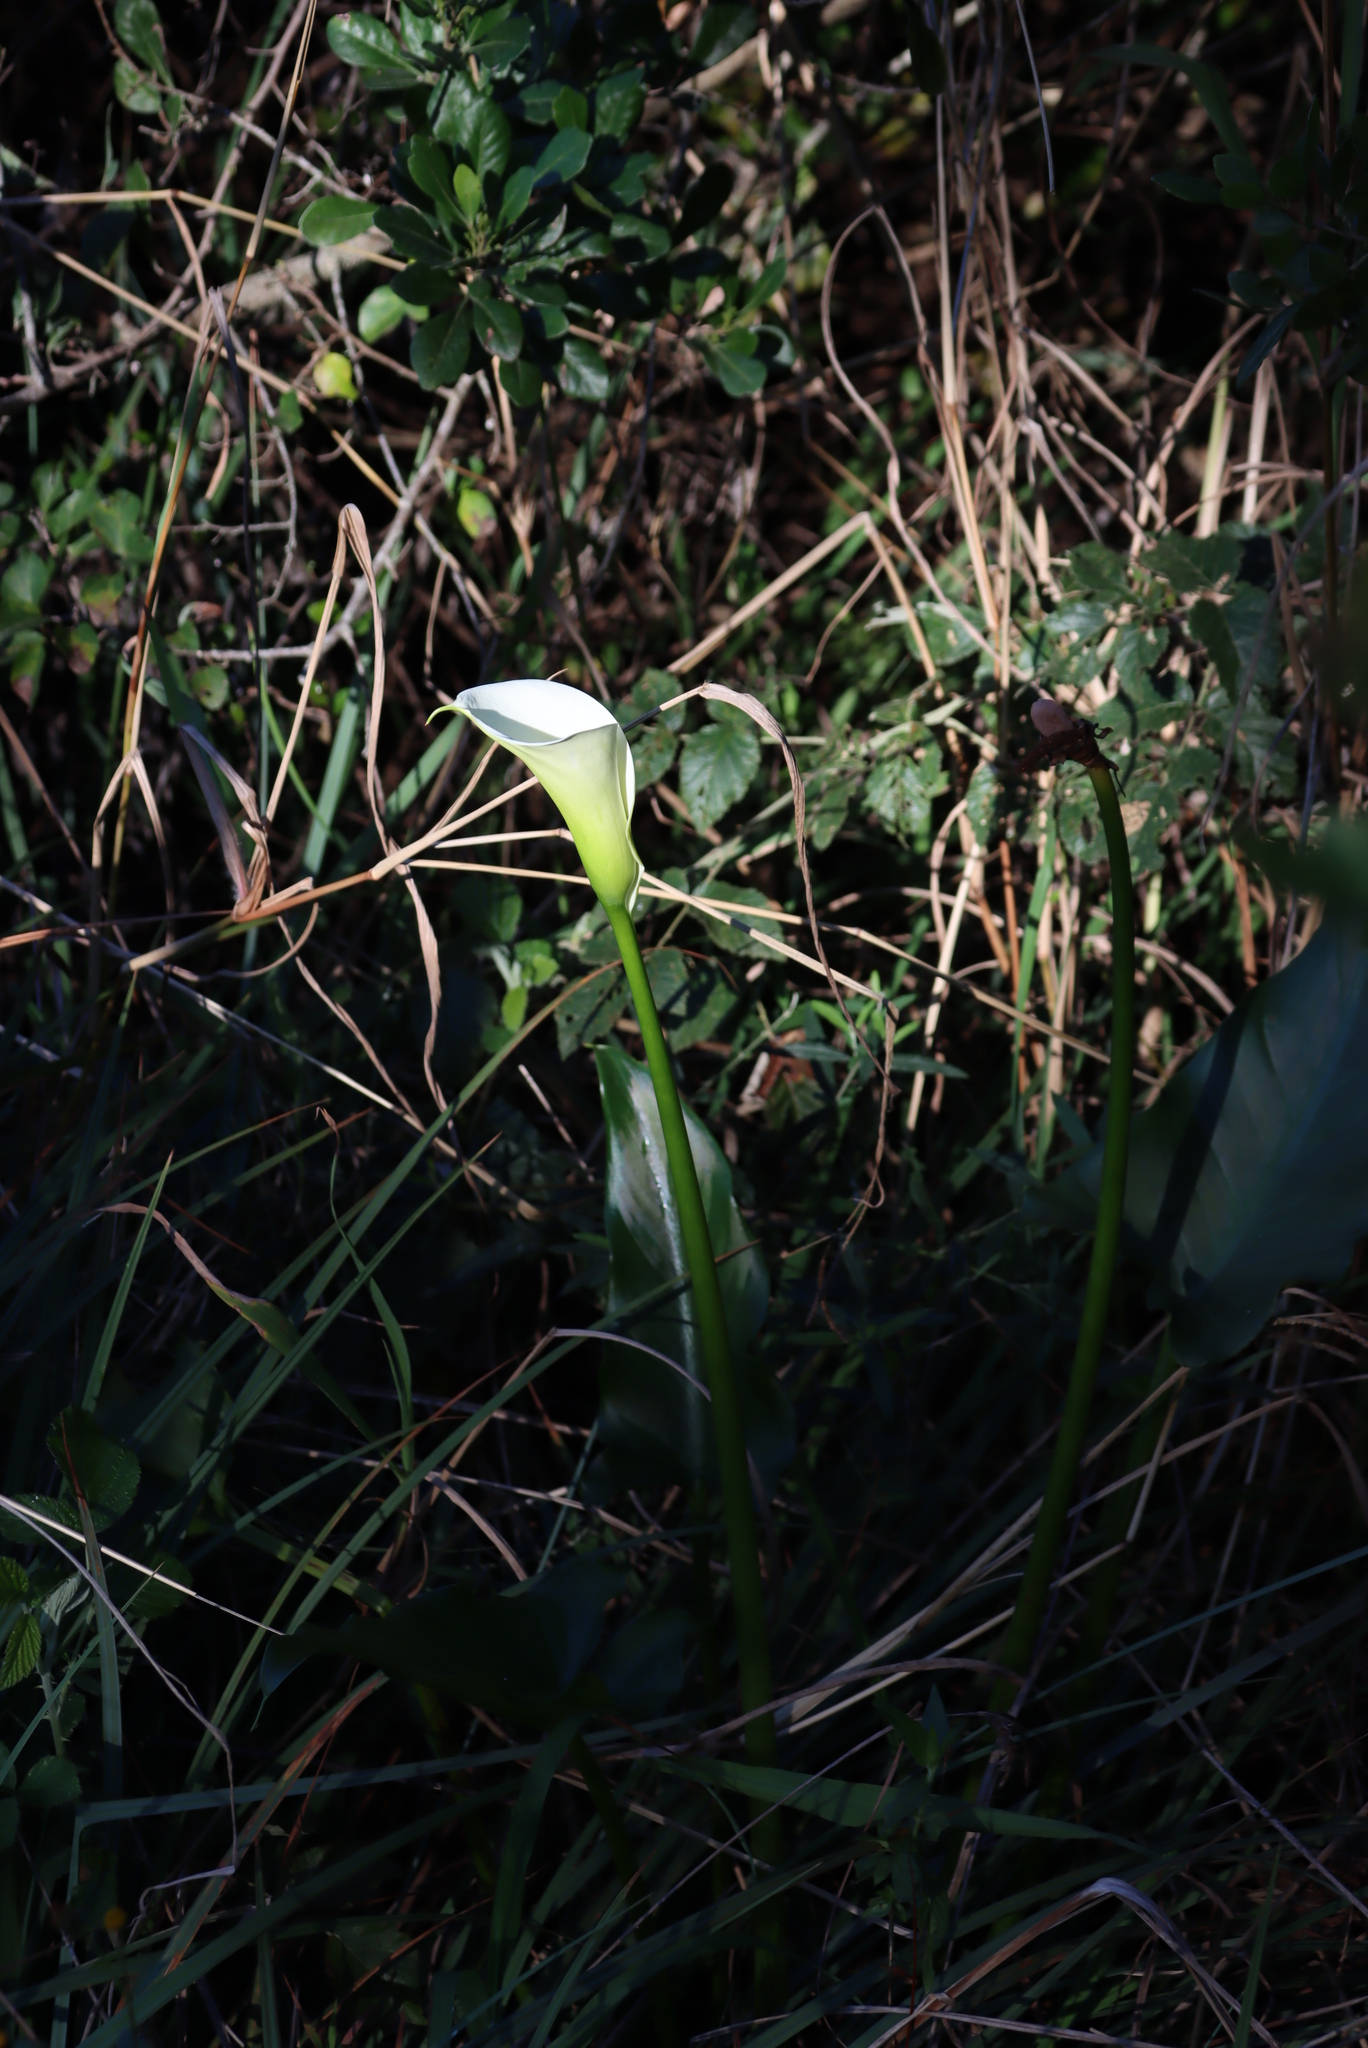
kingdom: Plantae
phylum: Tracheophyta
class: Liliopsida
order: Alismatales
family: Araceae
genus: Zantedeschia
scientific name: Zantedeschia aethiopica
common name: Altar-lily
